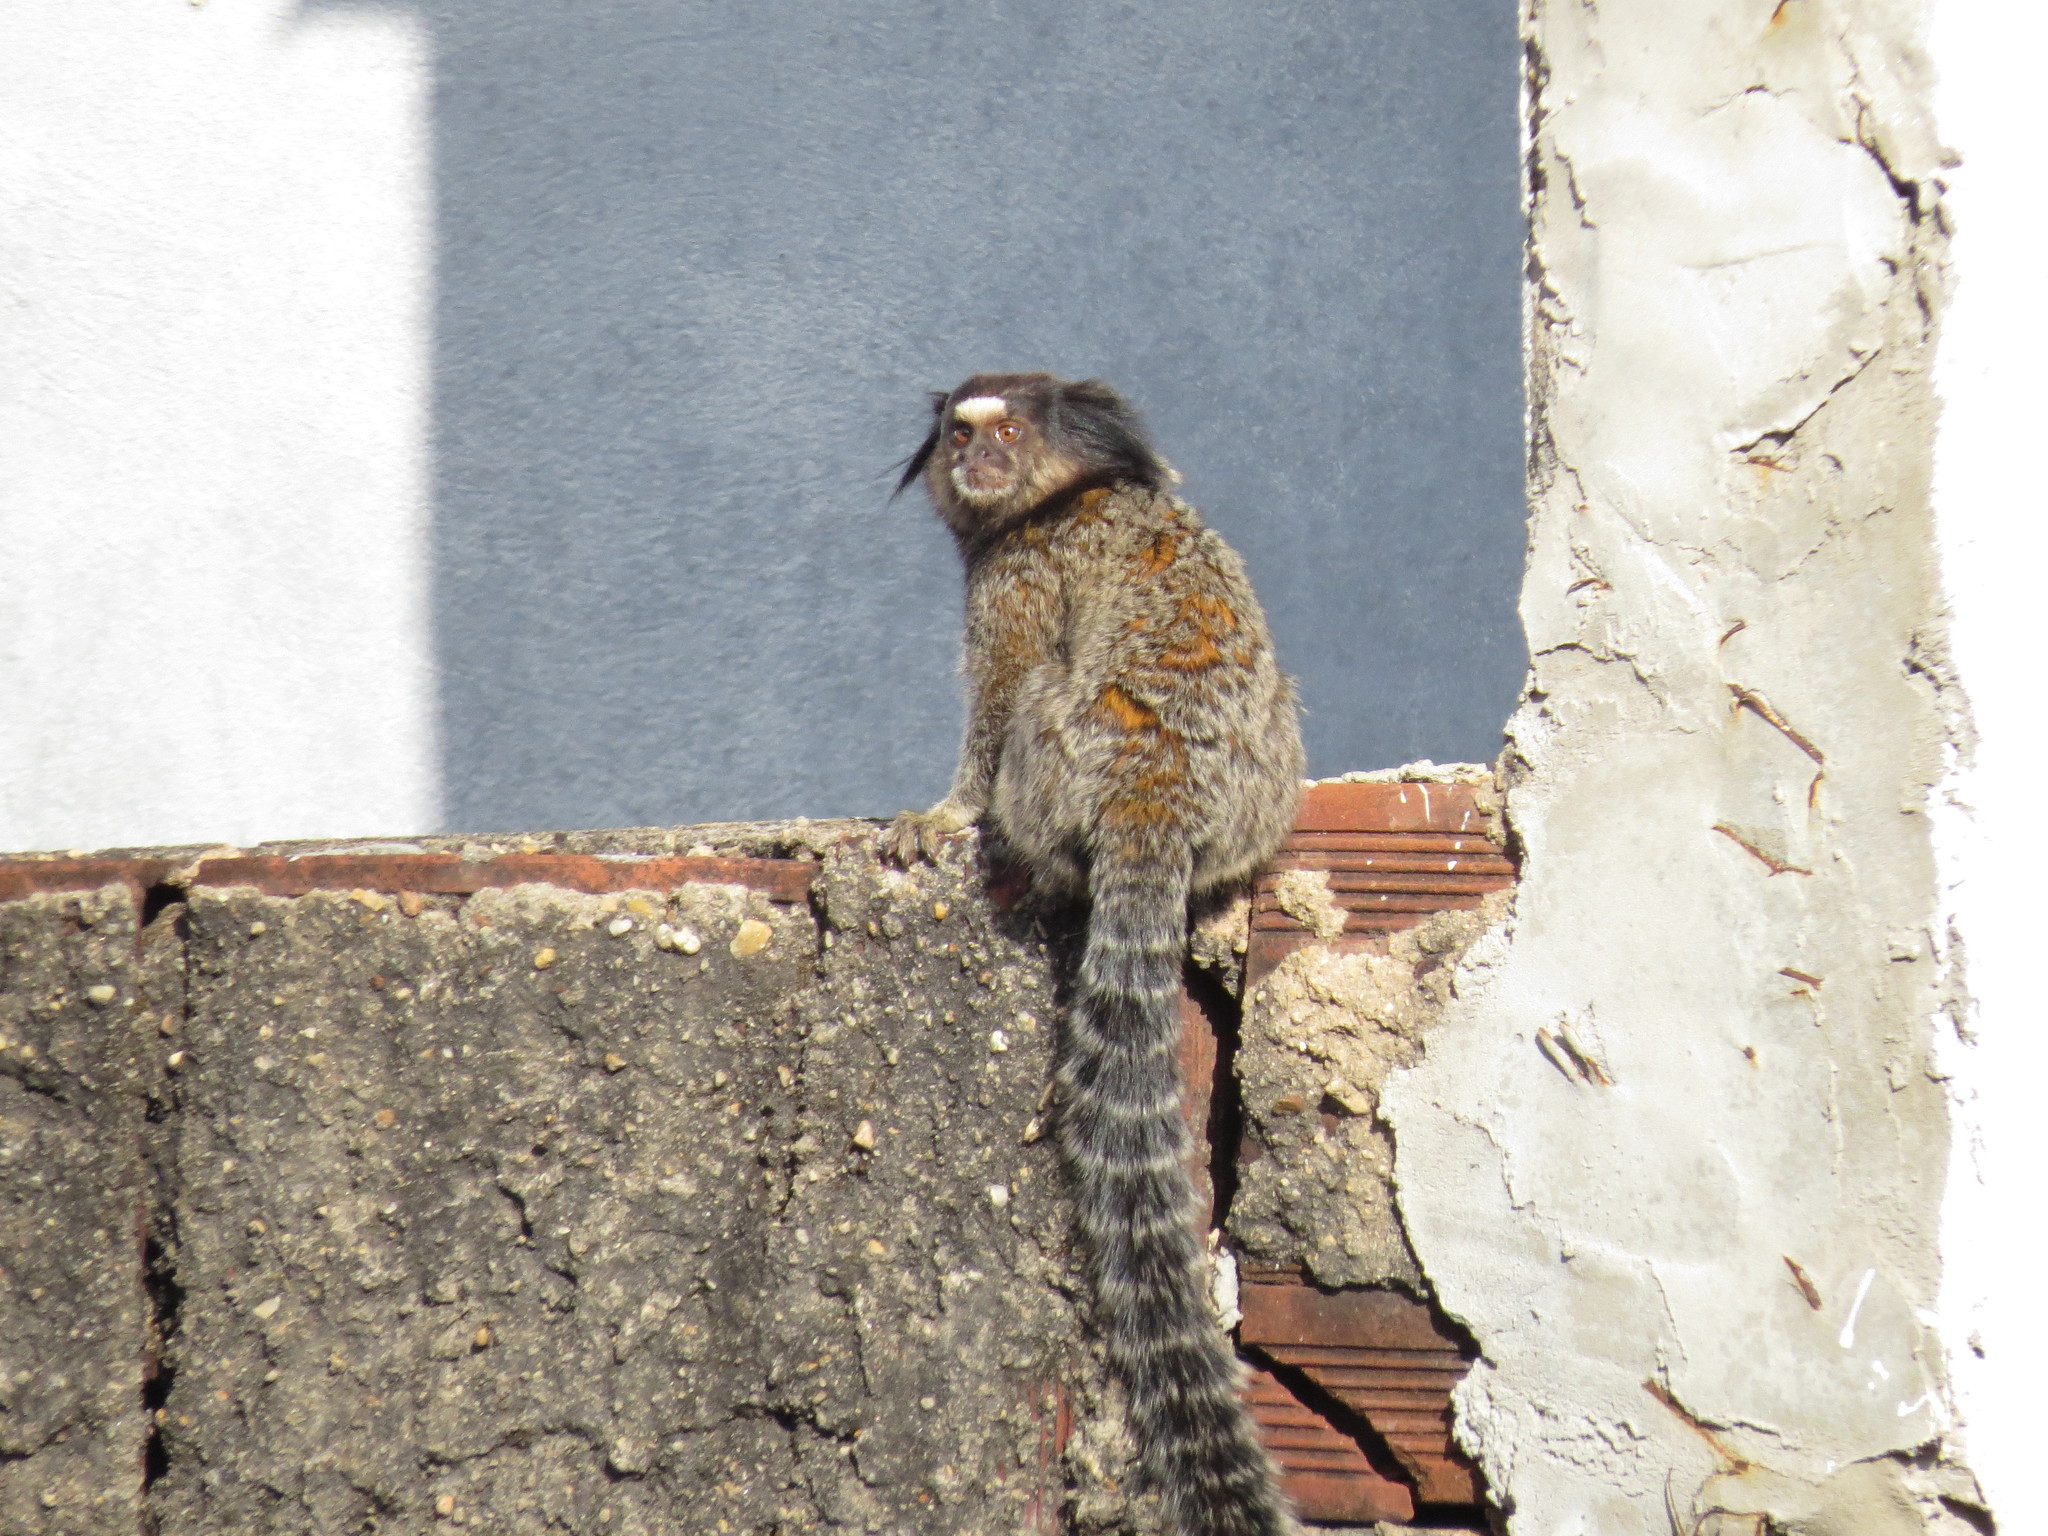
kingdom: Animalia
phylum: Chordata
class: Mammalia
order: Primates
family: Callitrichidae
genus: Callithrix
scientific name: Callithrix penicillata
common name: Black-tufted marmoset
